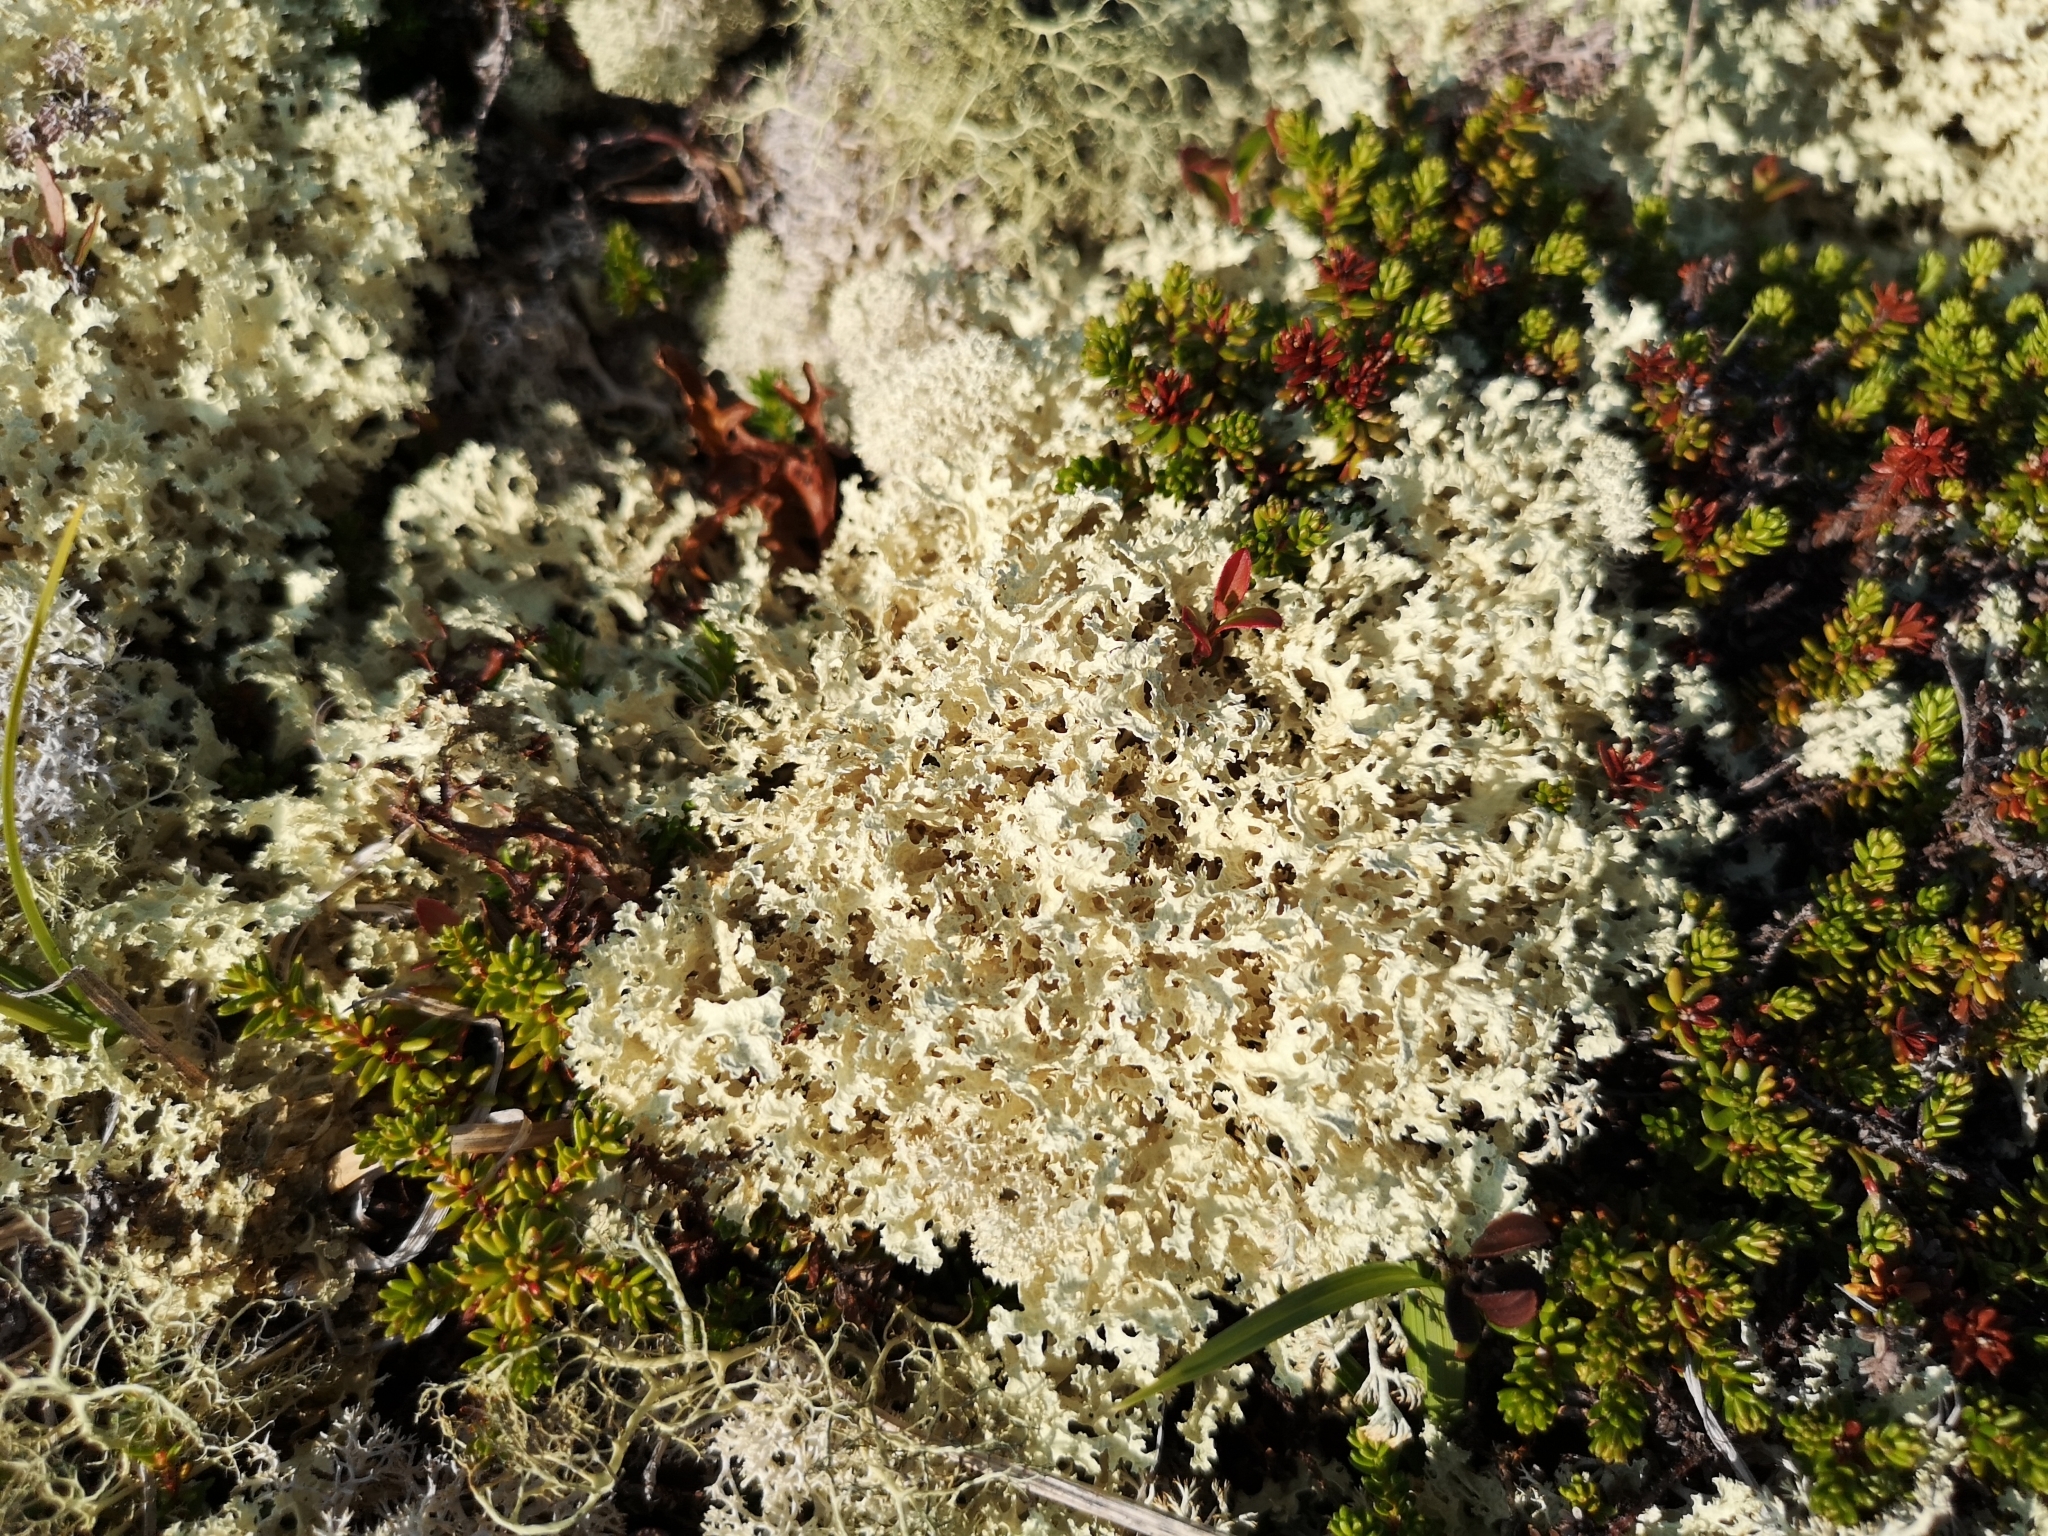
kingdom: Fungi
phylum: Ascomycota
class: Lecanoromycetes
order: Lecanorales
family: Parmeliaceae
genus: Nephromopsis
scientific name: Nephromopsis nivalis
